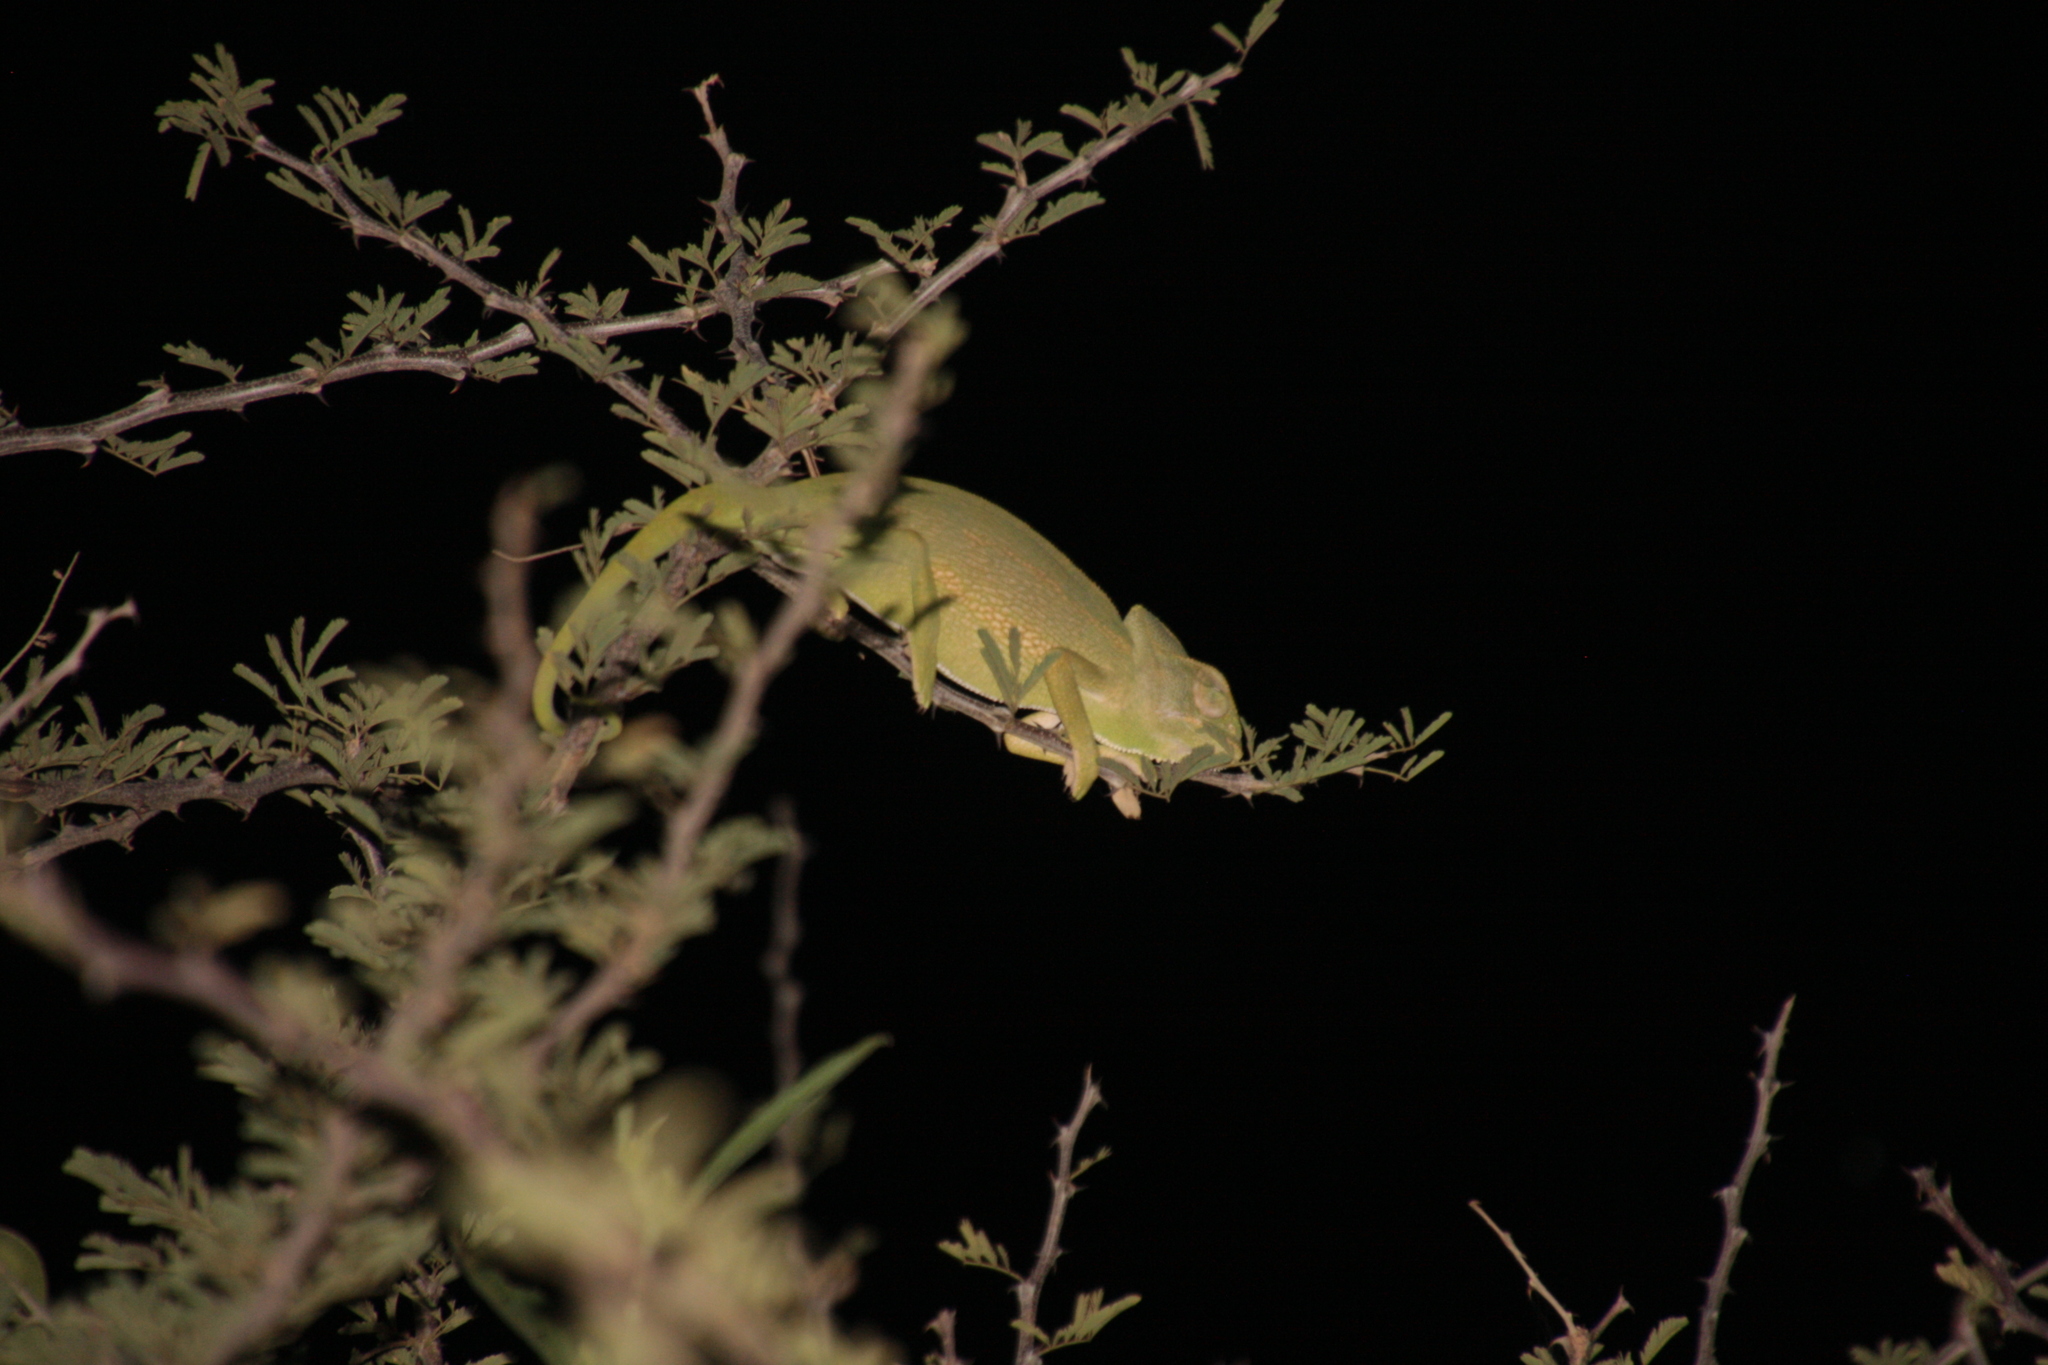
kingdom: Animalia
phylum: Chordata
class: Squamata
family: Chamaeleonidae
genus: Chamaeleo
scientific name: Chamaeleo africanus
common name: African chameleon
